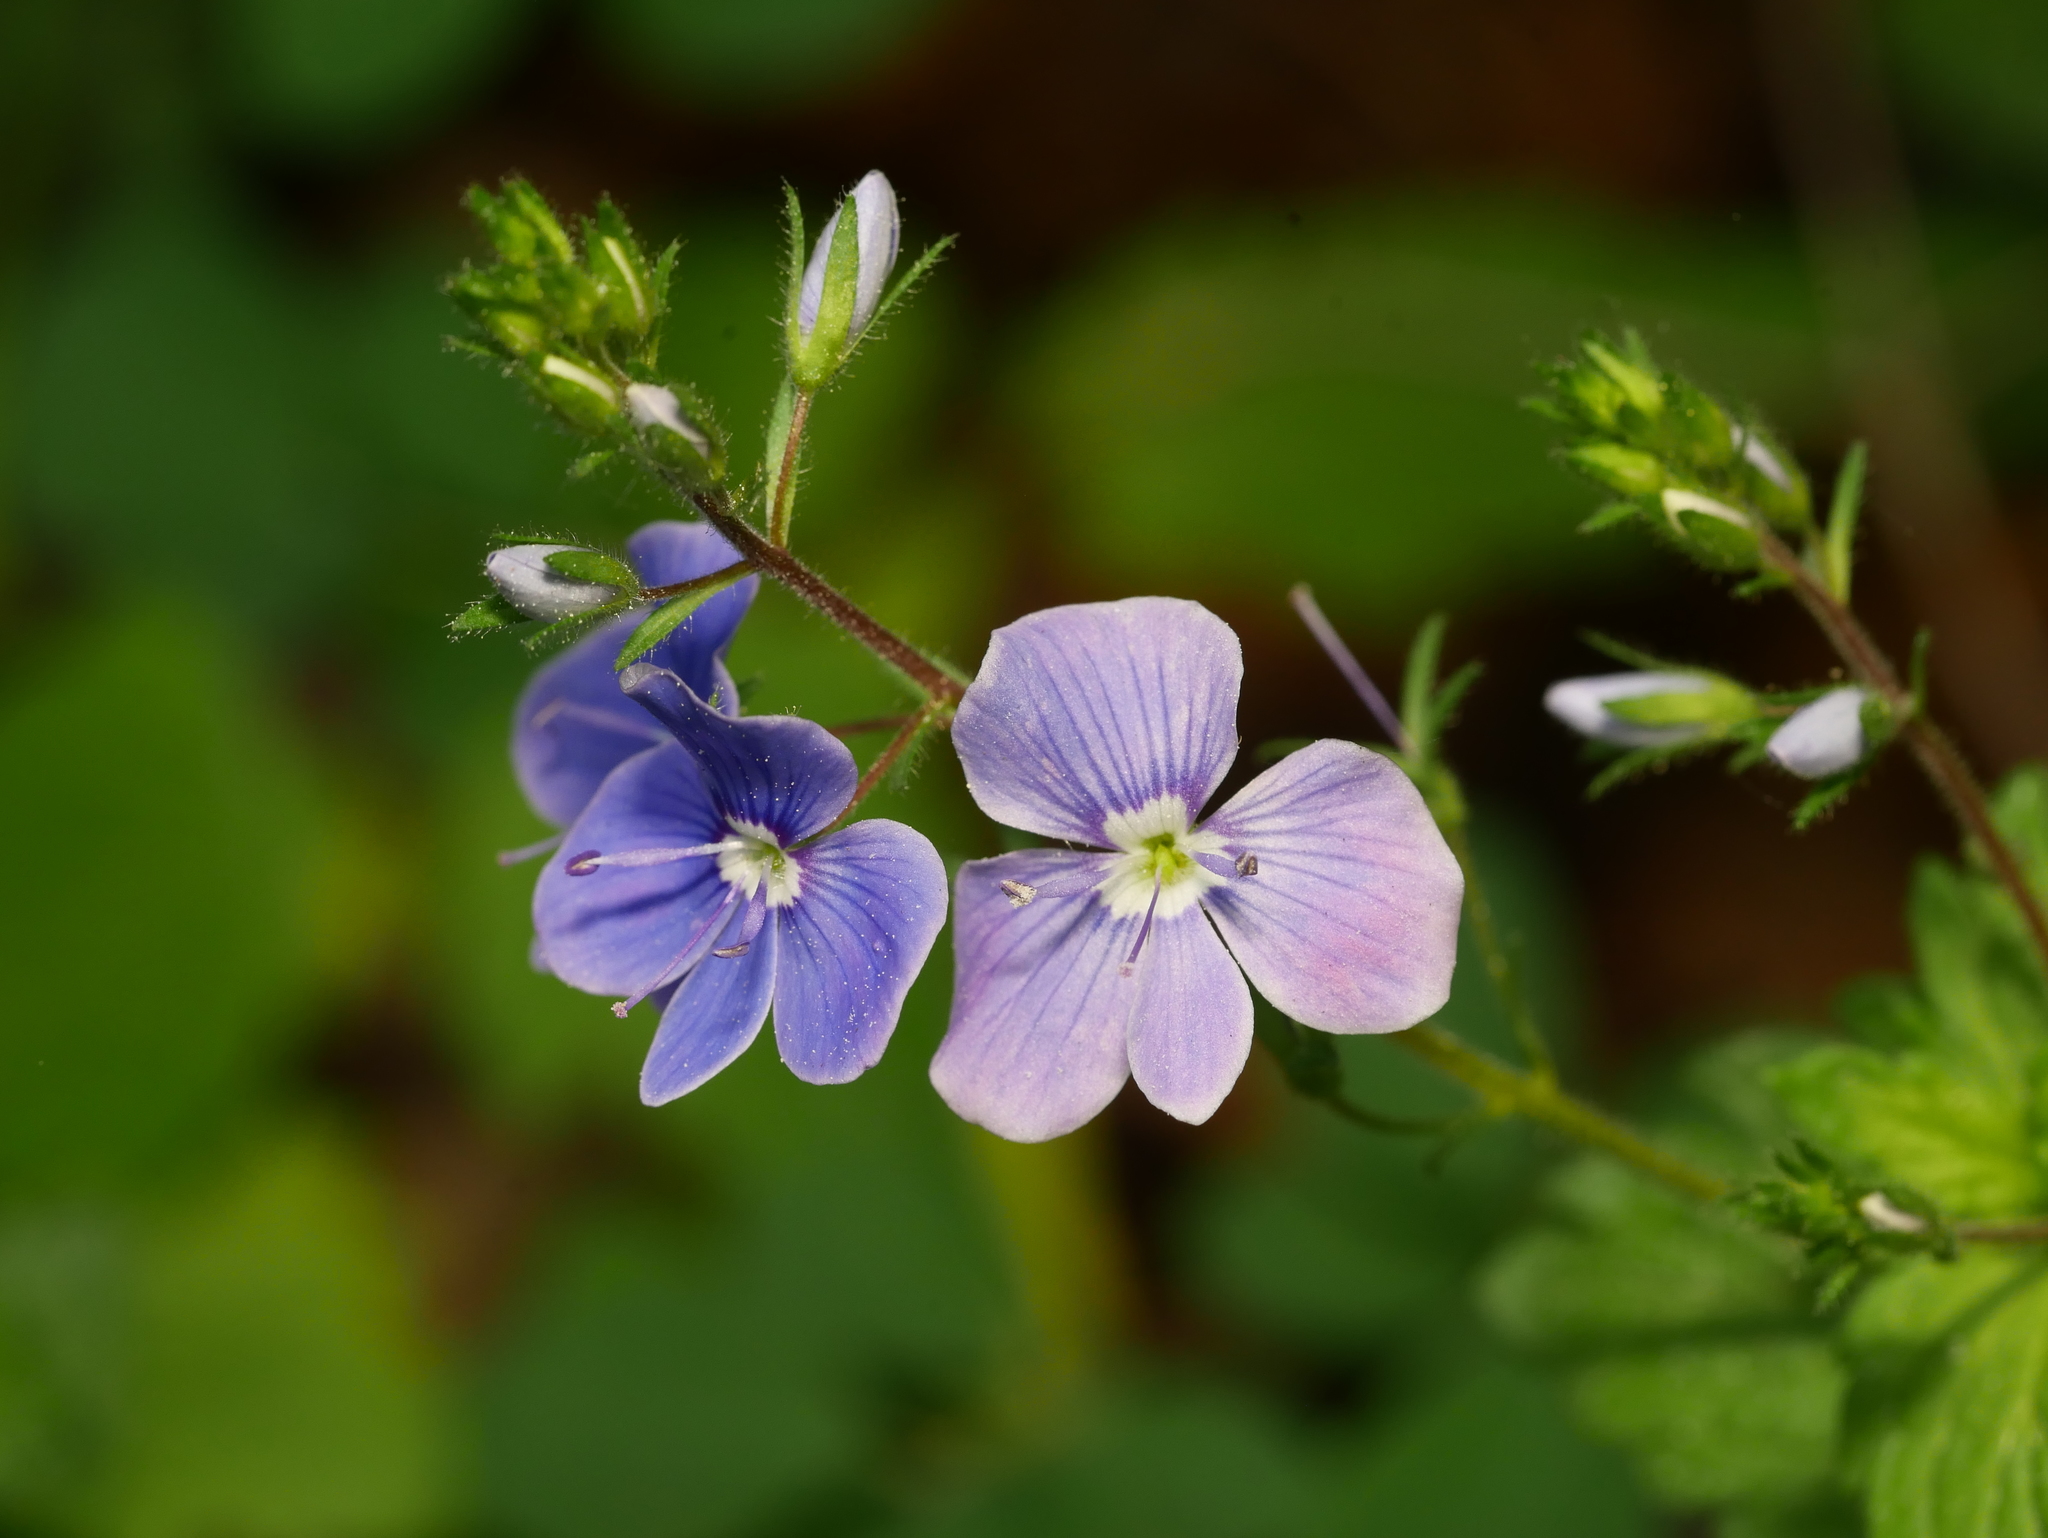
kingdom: Plantae
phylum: Tracheophyta
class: Magnoliopsida
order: Lamiales
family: Plantaginaceae
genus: Veronica
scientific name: Veronica chamaedrys
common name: Germander speedwell
